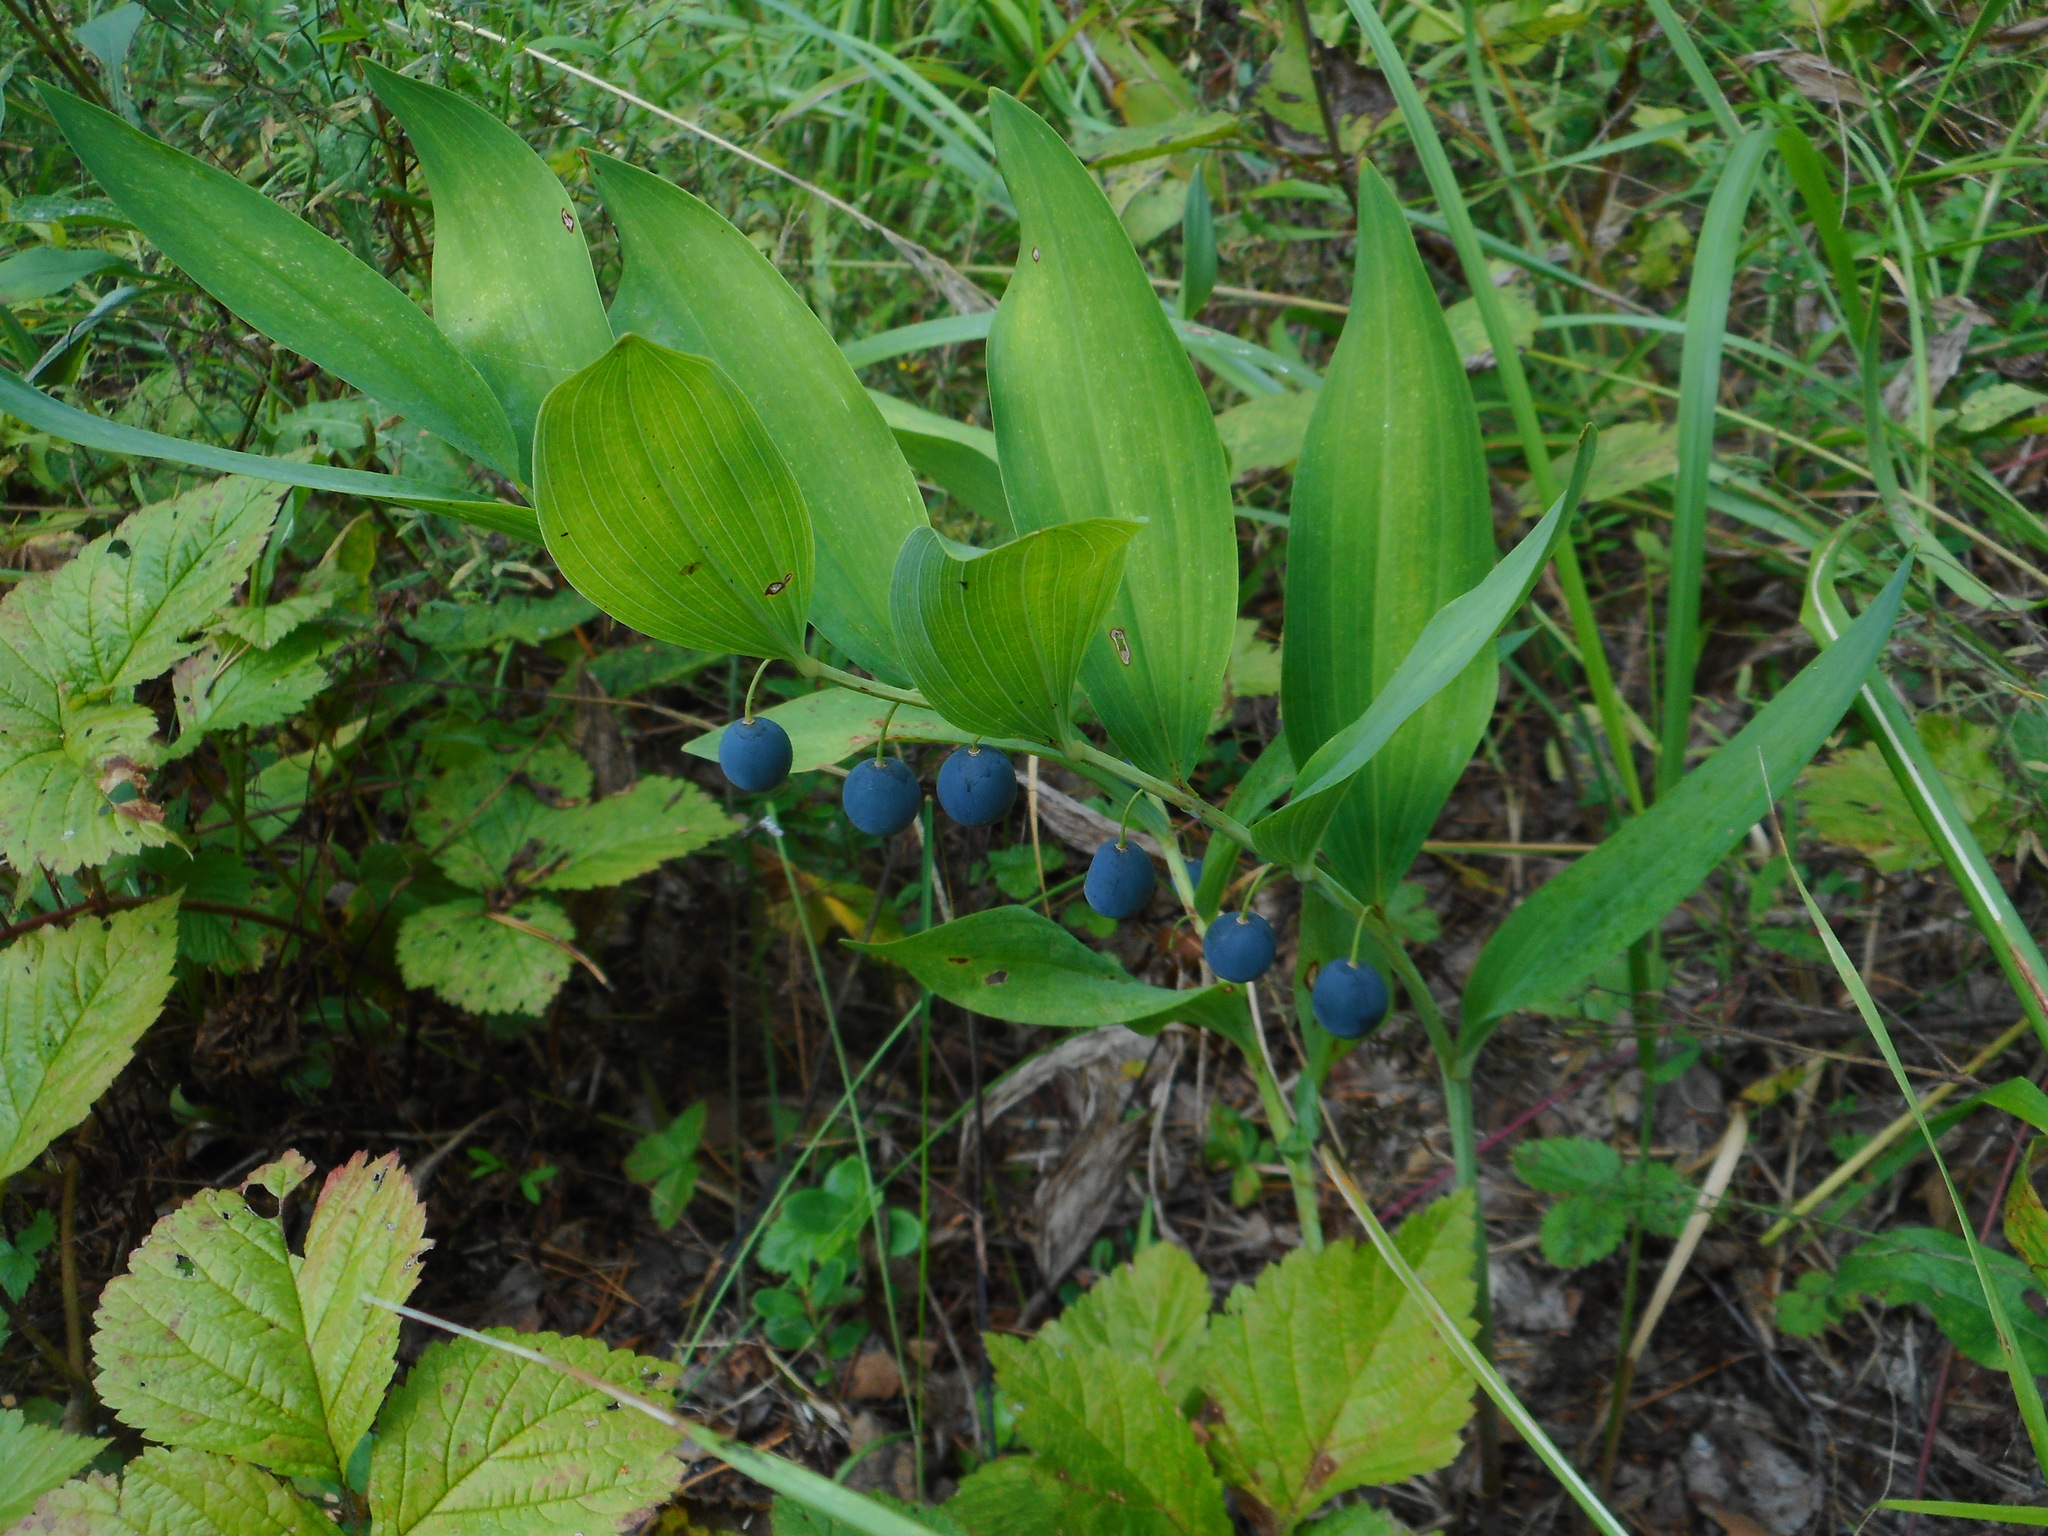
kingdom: Plantae
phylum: Tracheophyta
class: Liliopsida
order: Asparagales
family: Asparagaceae
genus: Polygonatum
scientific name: Polygonatum odoratum
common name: Angular solomon's-seal
